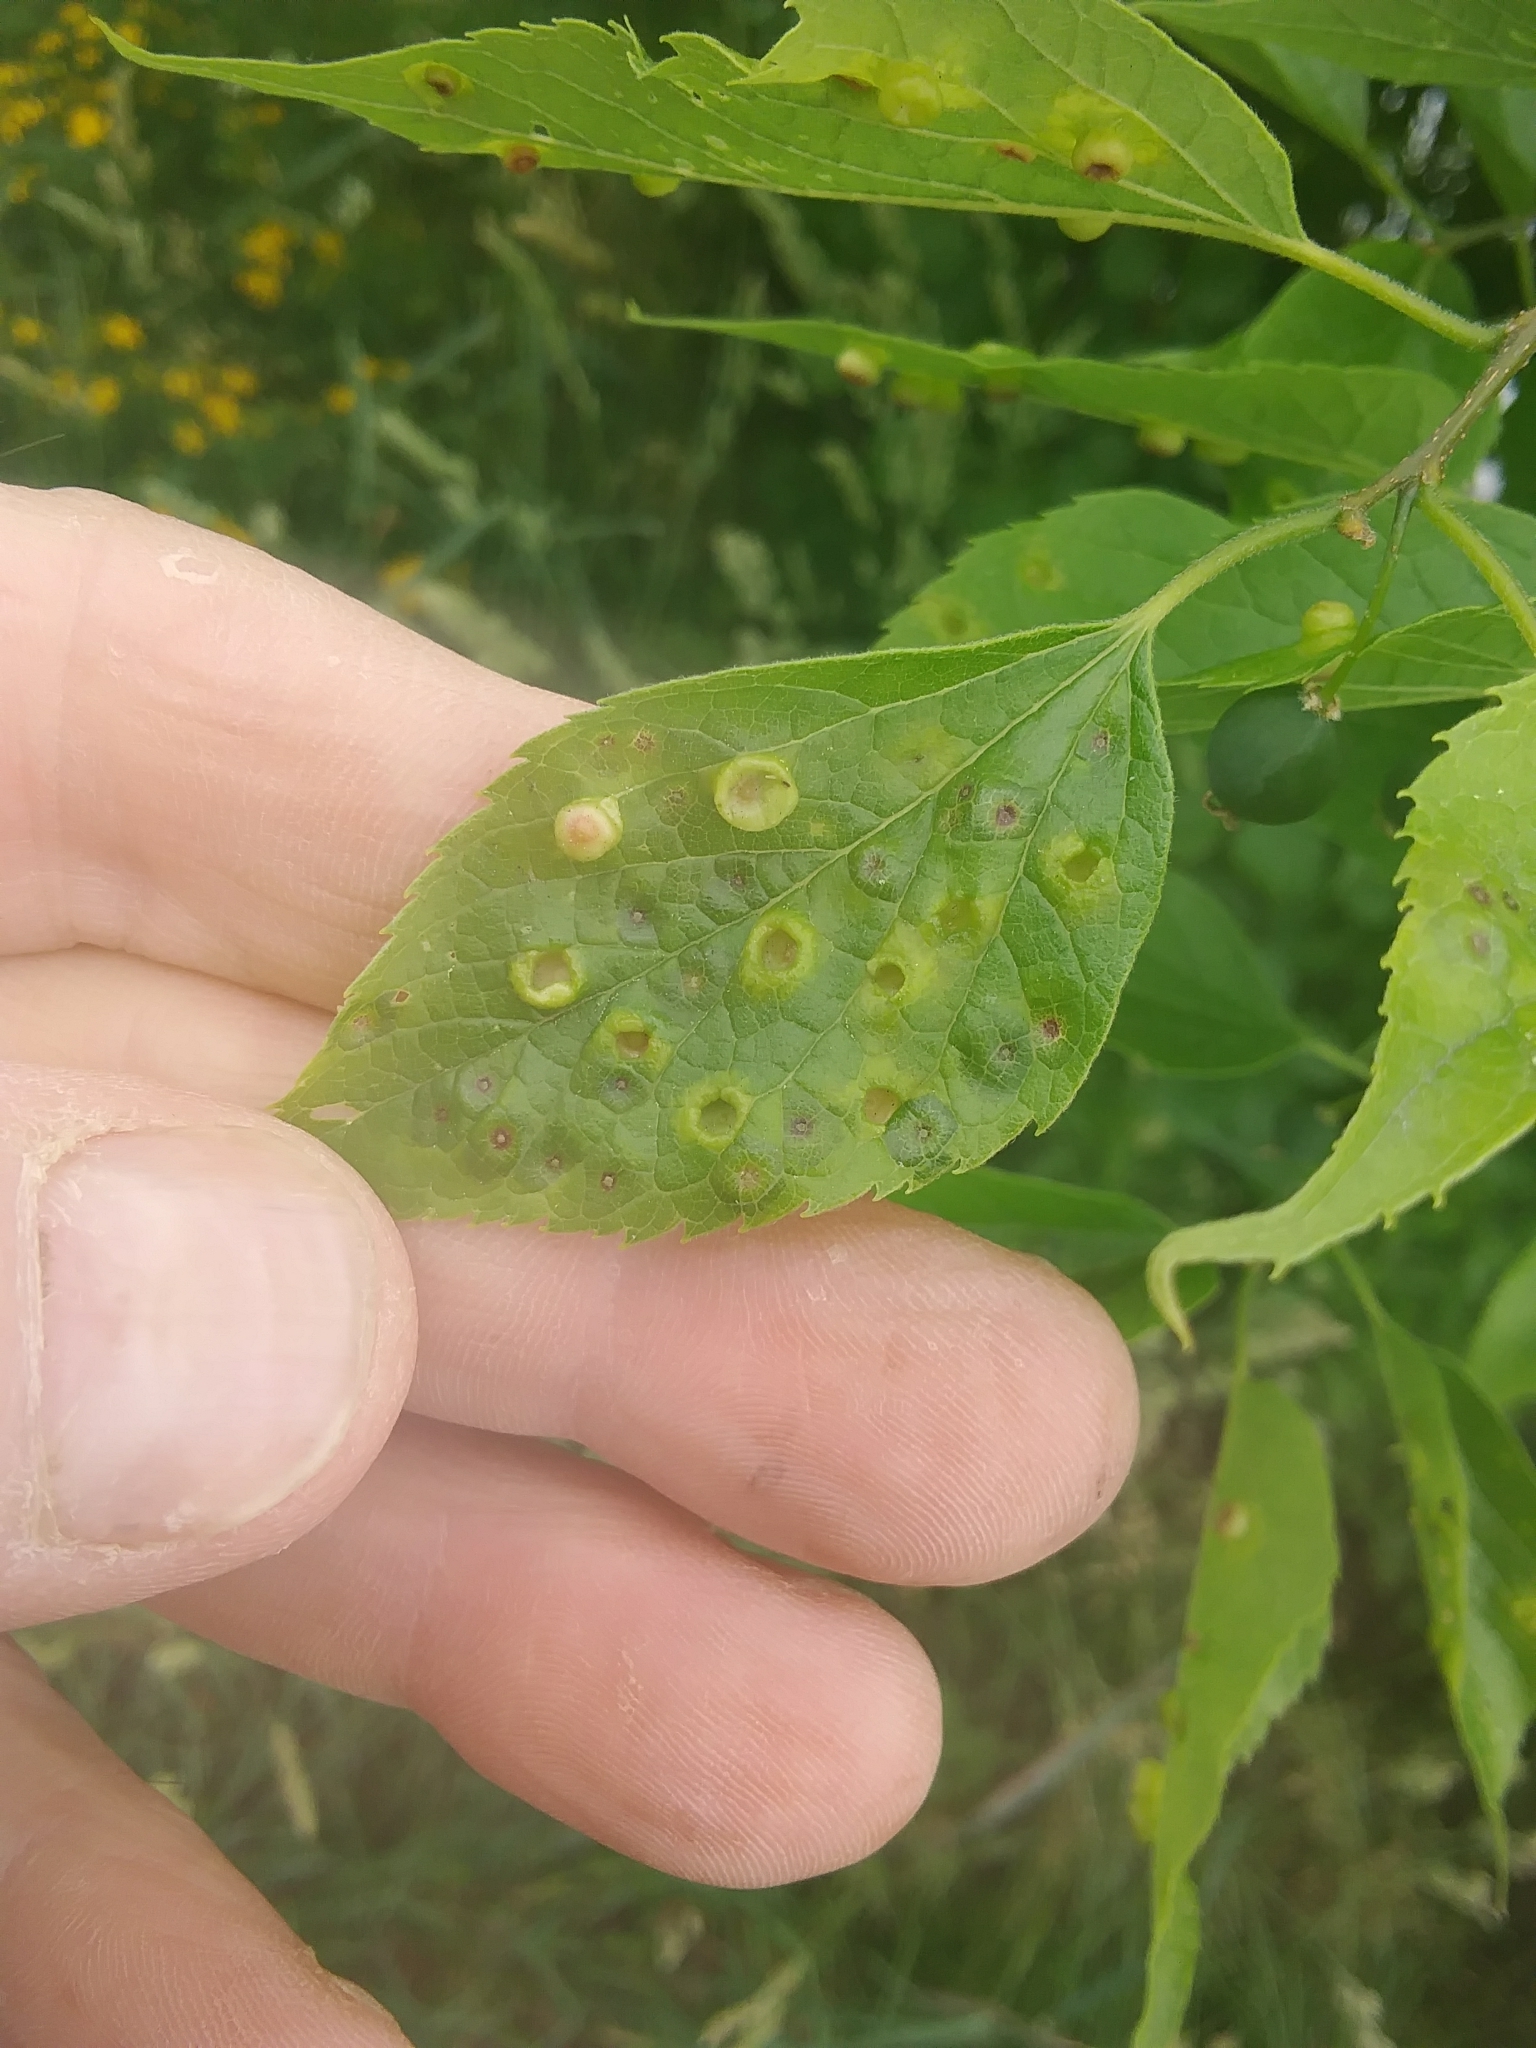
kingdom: Animalia
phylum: Arthropoda
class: Insecta
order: Hemiptera
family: Aphalaridae
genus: Pachypsylla
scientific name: Pachypsylla celtidisasterisca
